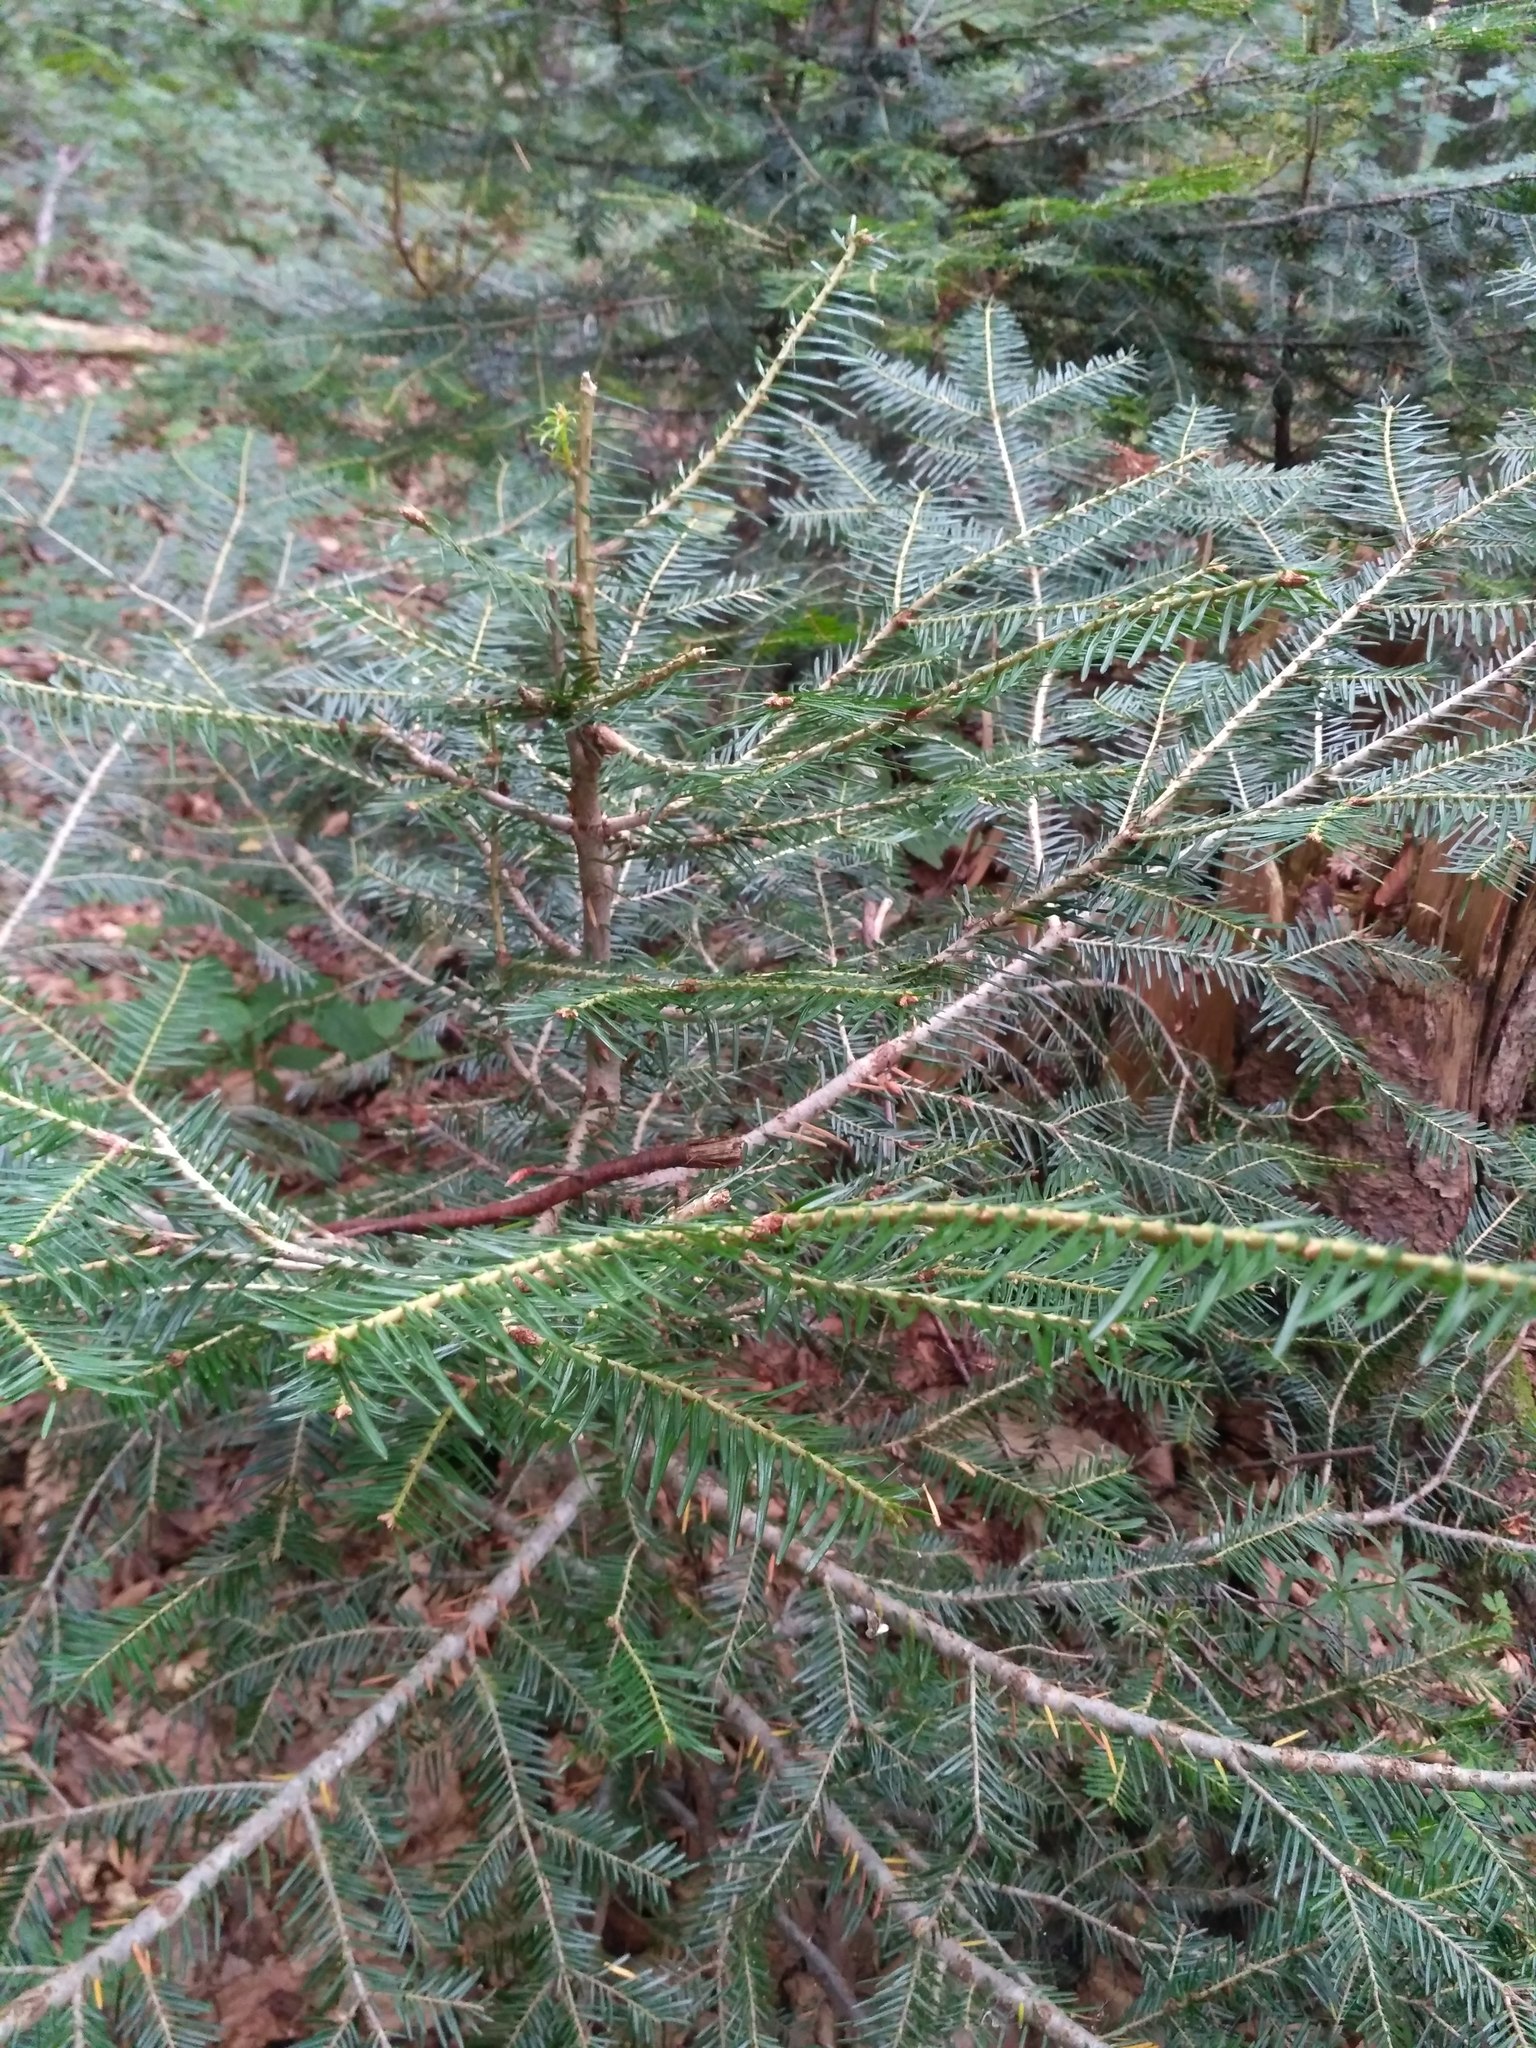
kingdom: Plantae
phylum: Tracheophyta
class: Pinopsida
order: Pinales
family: Pinaceae
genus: Abies
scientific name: Abies alba
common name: Silver fir
